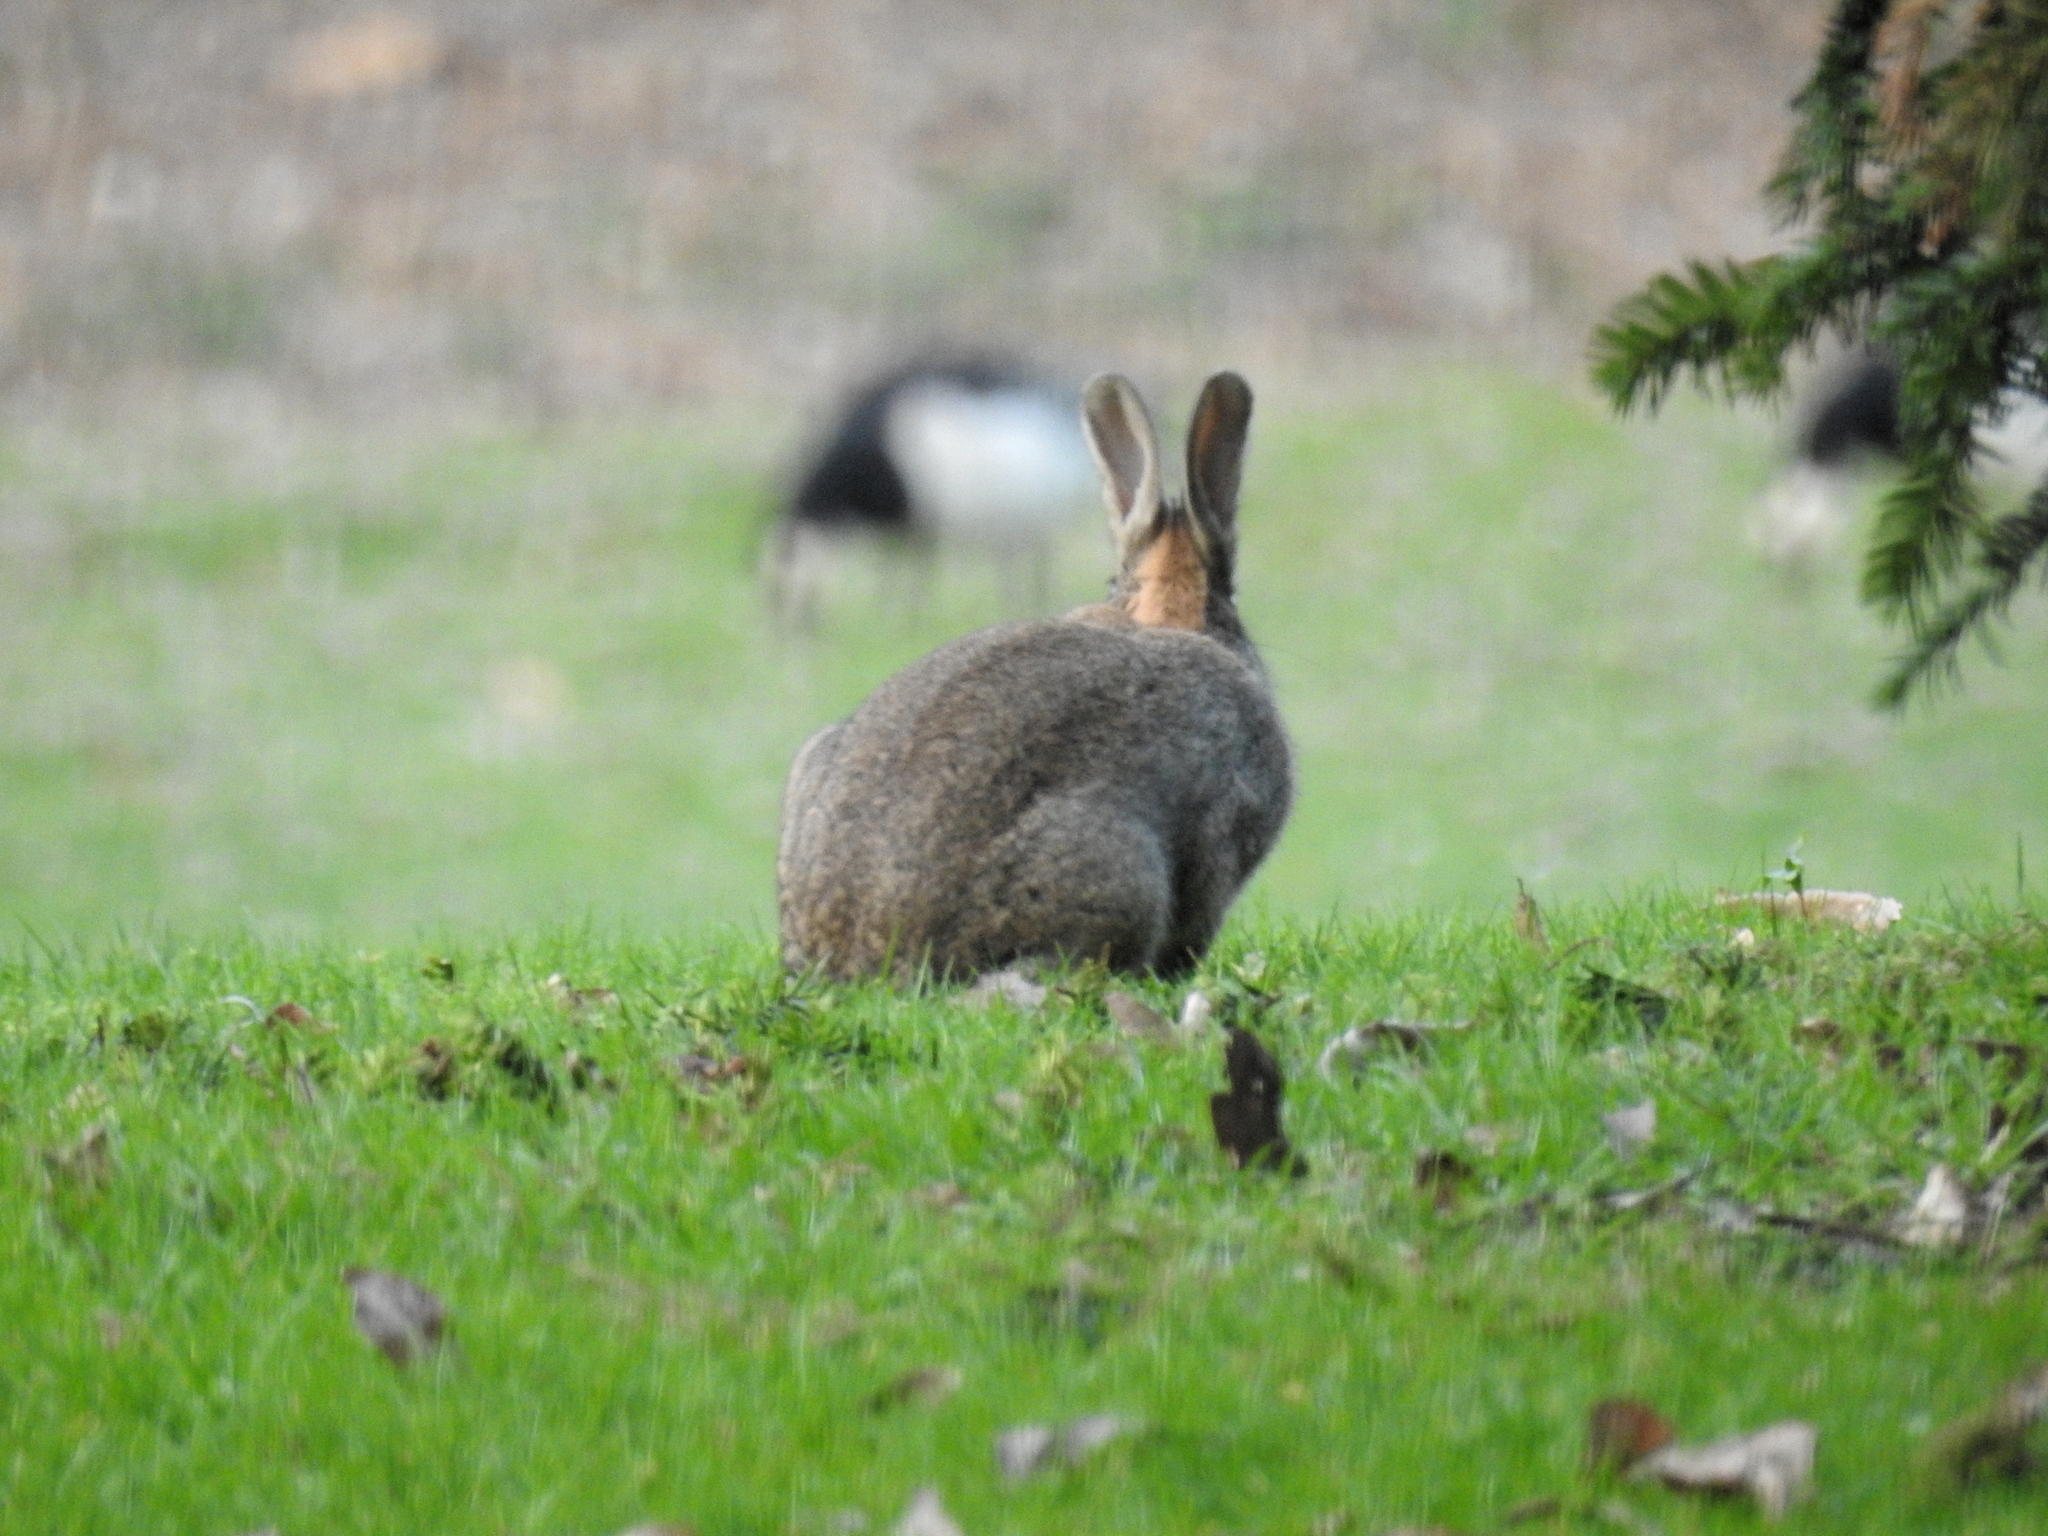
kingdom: Animalia
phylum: Chordata
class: Mammalia
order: Lagomorpha
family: Leporidae
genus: Oryctolagus
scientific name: Oryctolagus cuniculus
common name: European rabbit
